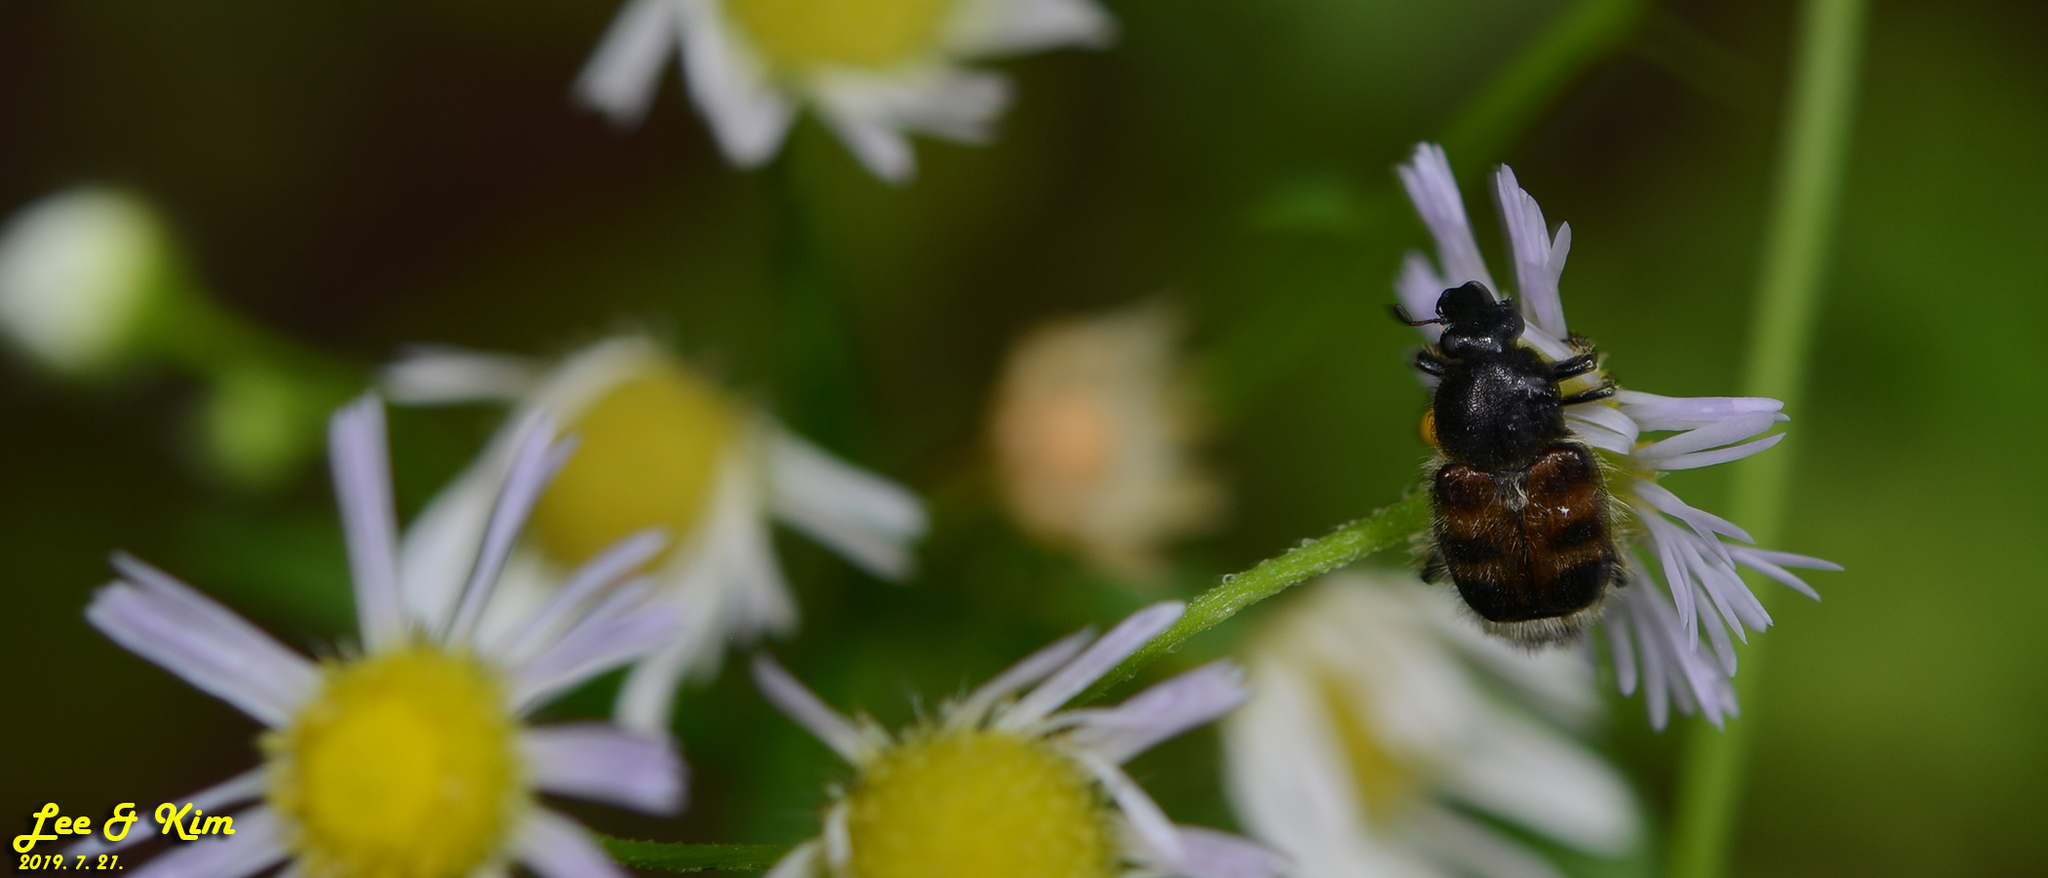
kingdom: Animalia
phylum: Arthropoda
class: Insecta
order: Coleoptera
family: Scarabaeidae
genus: Lasiotrichius
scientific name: Lasiotrichius succinctus
